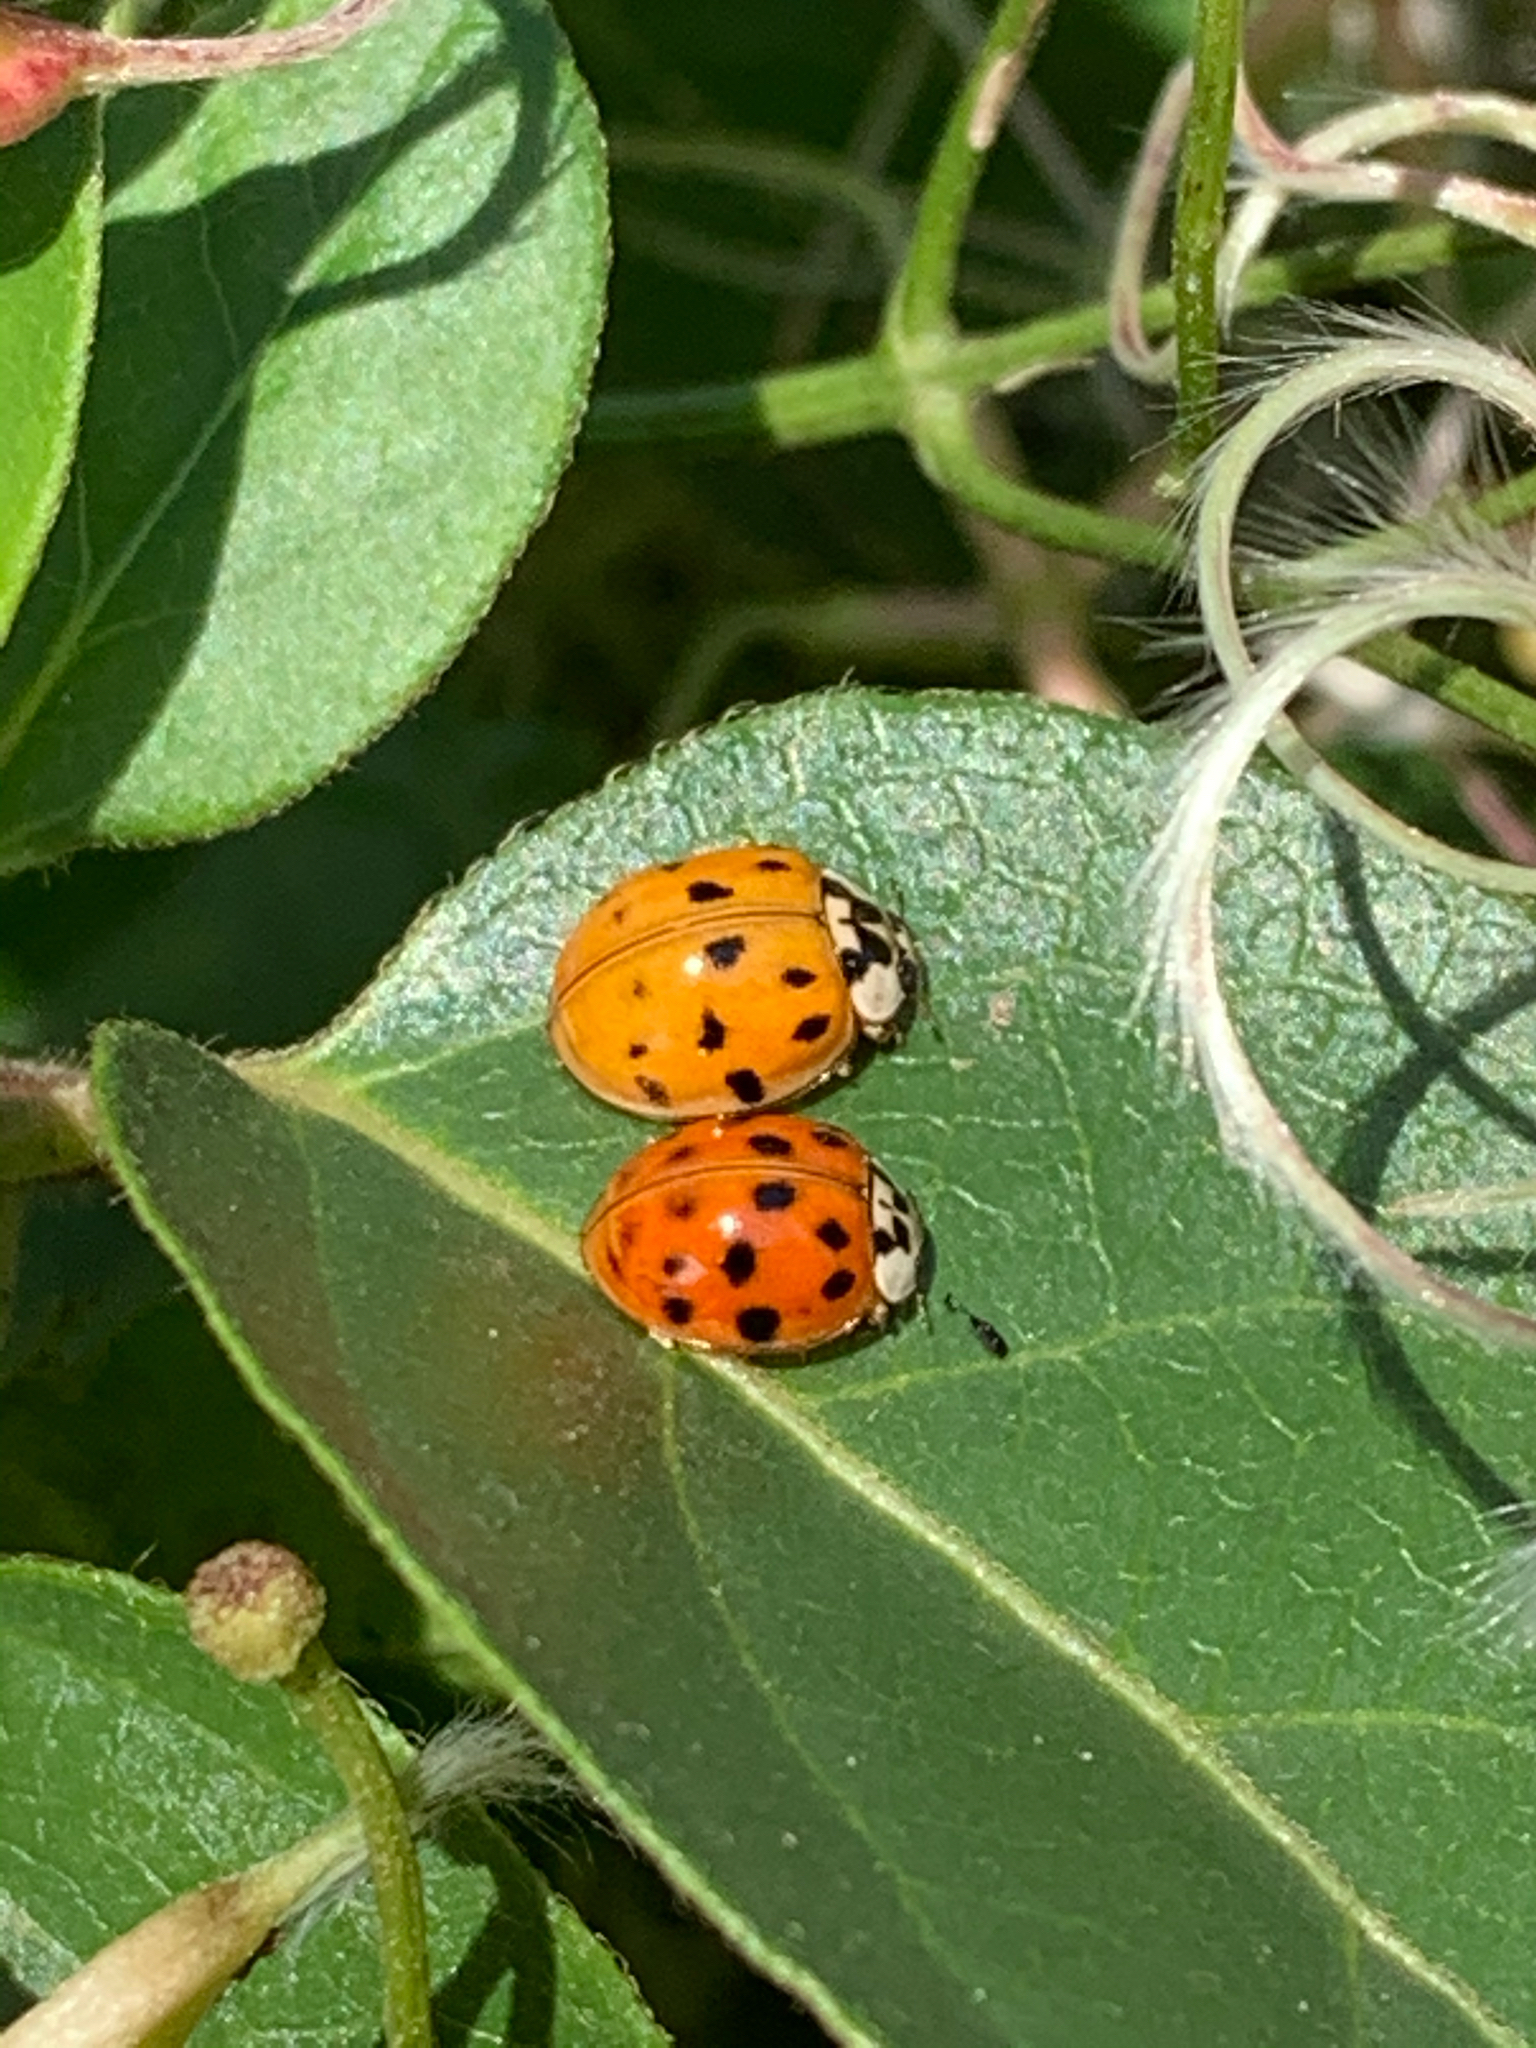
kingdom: Animalia
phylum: Arthropoda
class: Insecta
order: Coleoptera
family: Coccinellidae
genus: Harmonia
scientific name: Harmonia axyridis
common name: Harlequin ladybird
